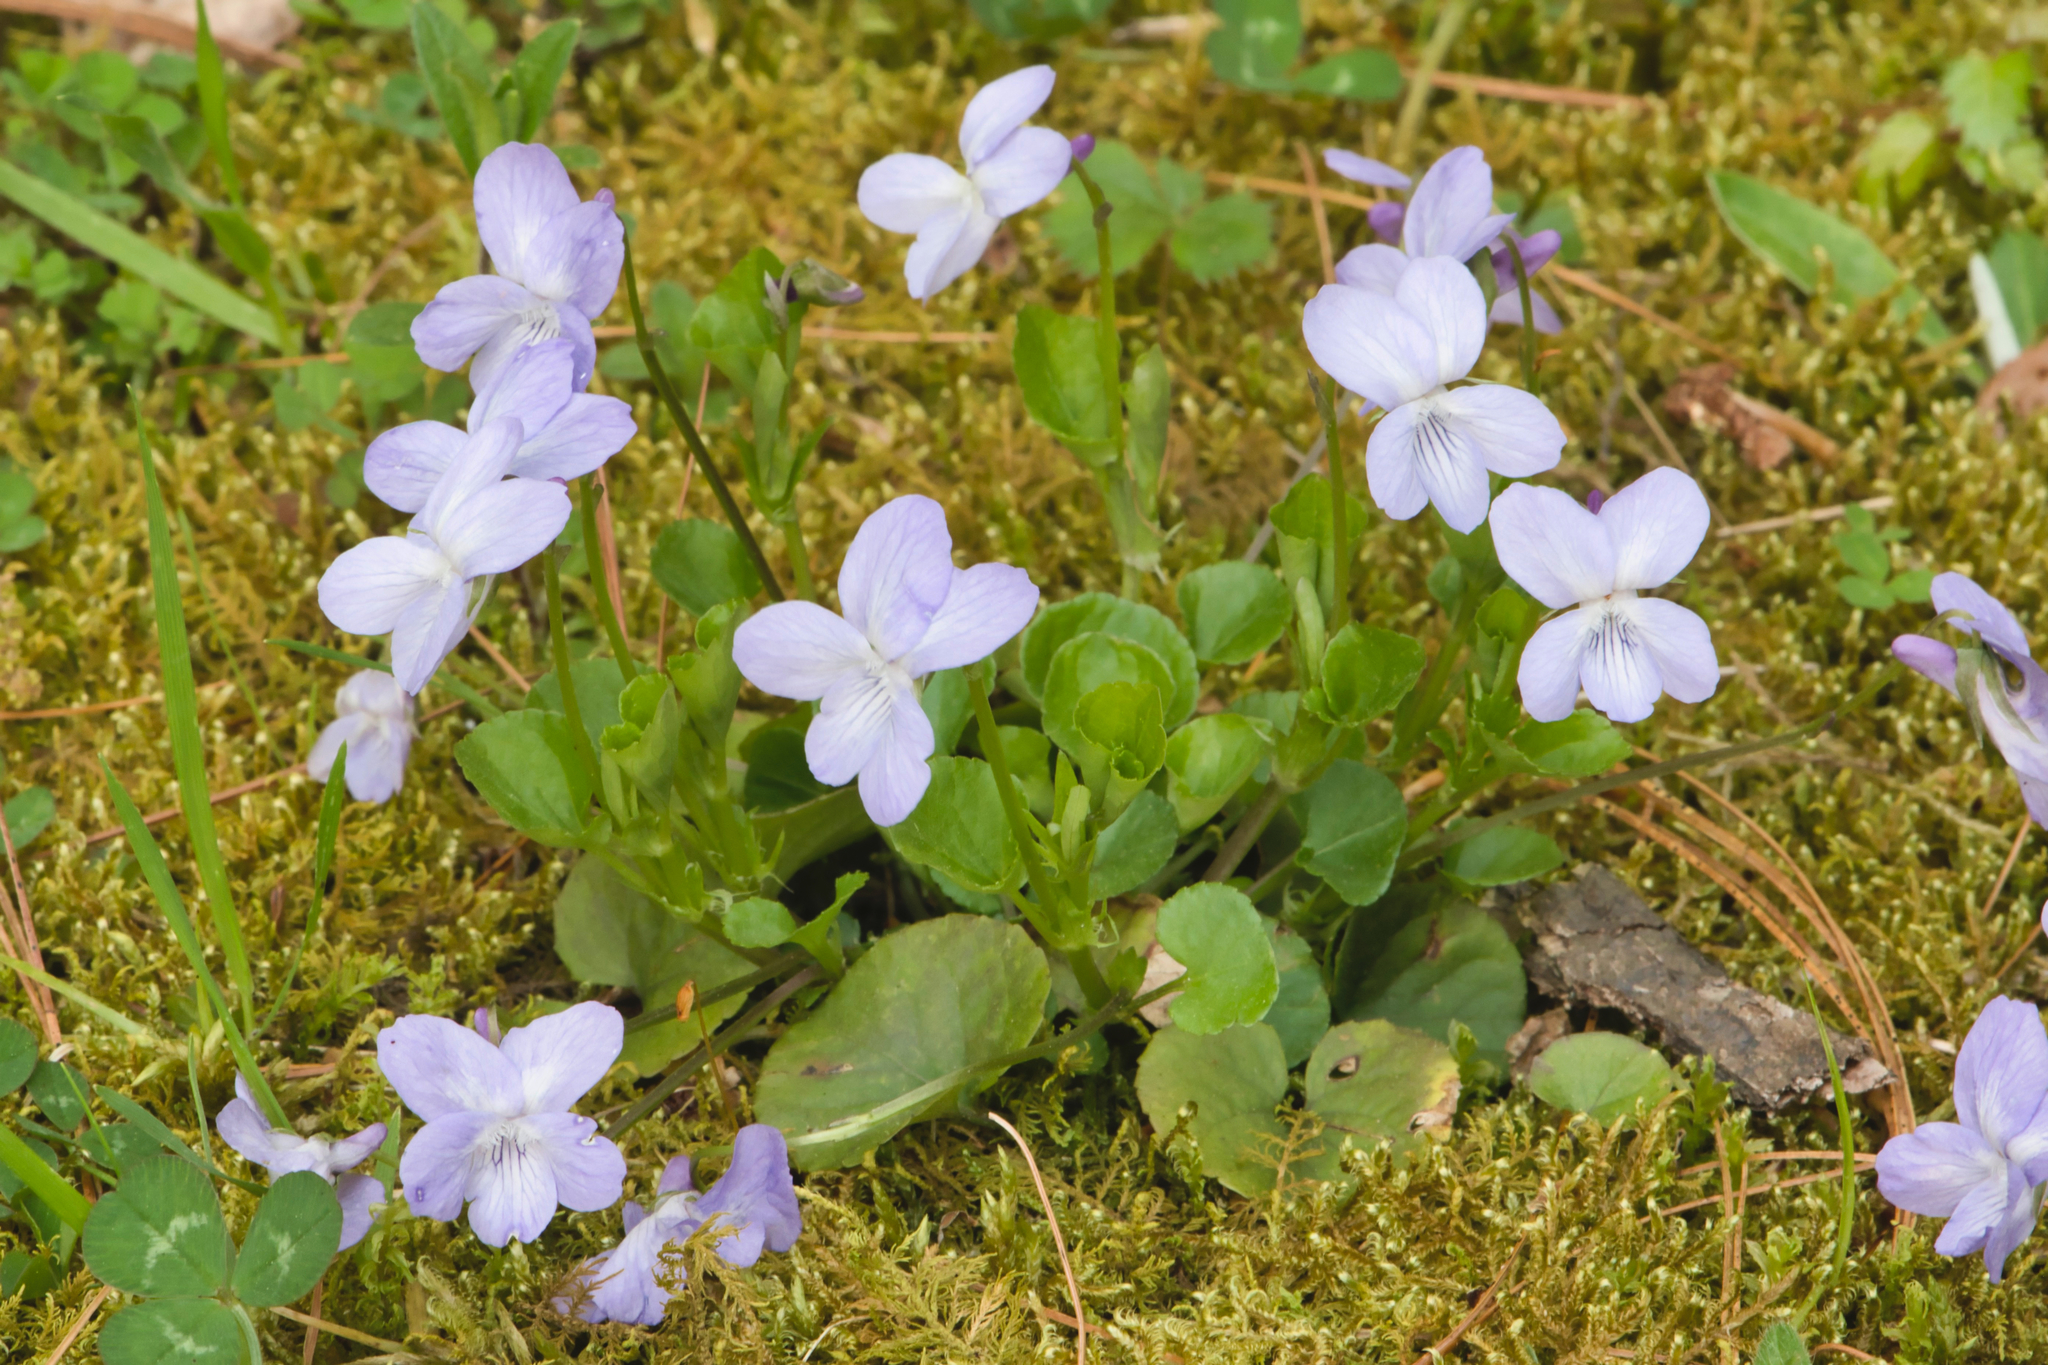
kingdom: Plantae
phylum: Tracheophyta
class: Magnoliopsida
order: Malpighiales
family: Violaceae
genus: Viola
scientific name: Viola labradorica
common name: Labrador violet
